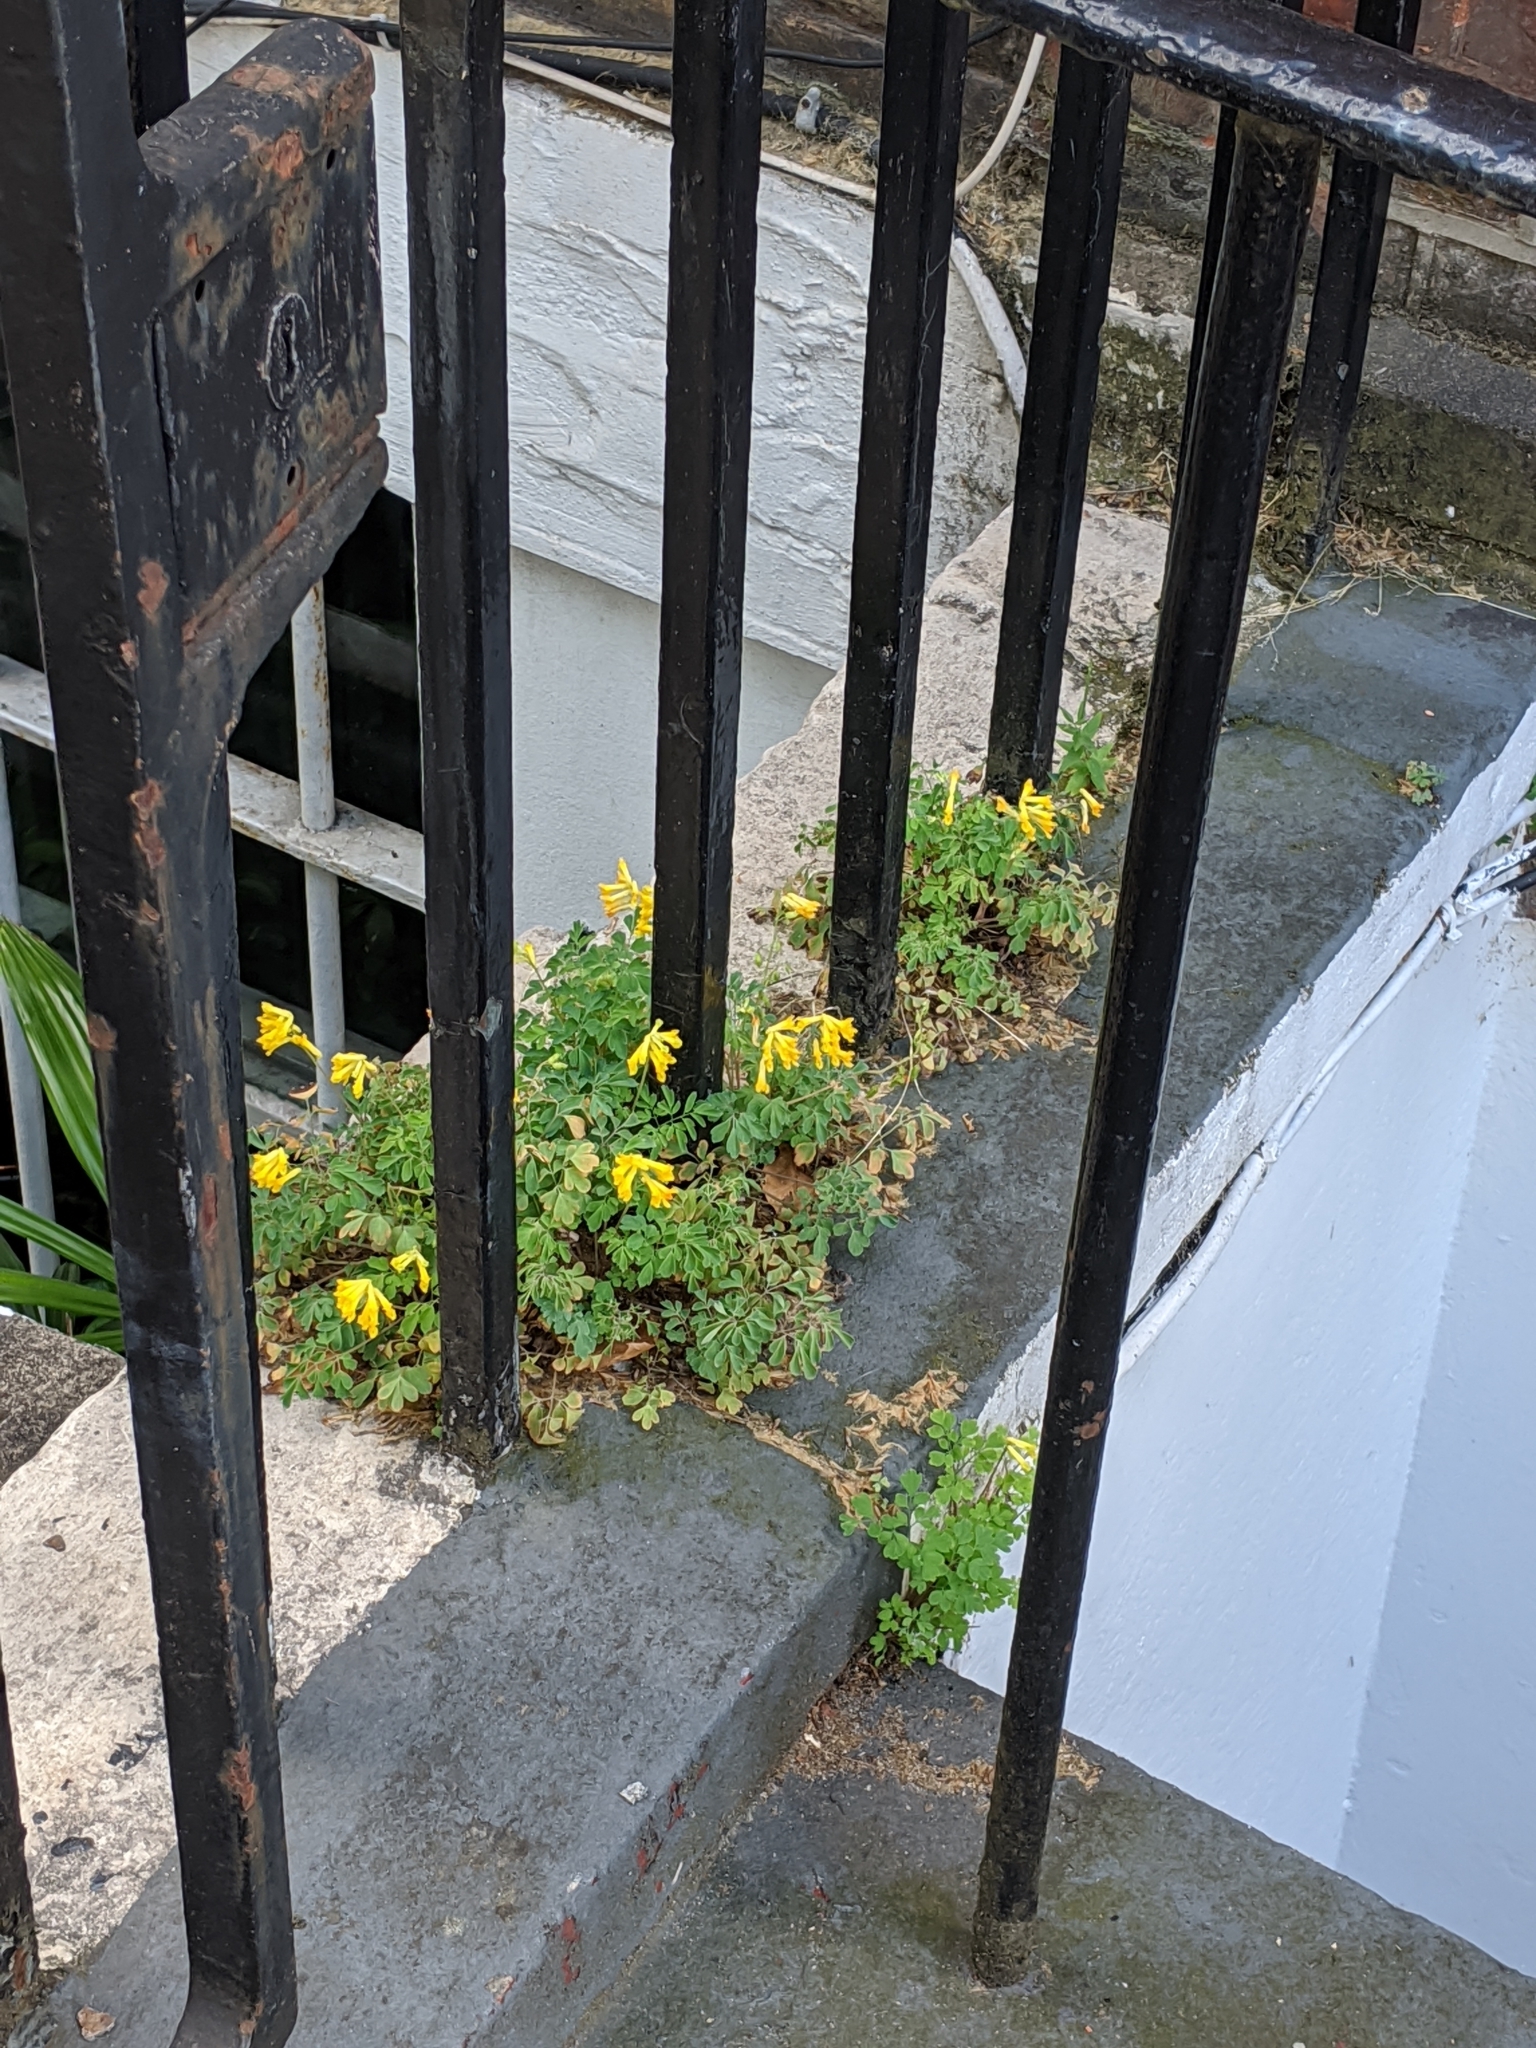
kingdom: Plantae
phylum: Tracheophyta
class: Magnoliopsida
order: Ranunculales
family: Papaveraceae
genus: Pseudofumaria
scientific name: Pseudofumaria lutea
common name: Yellow corydalis
